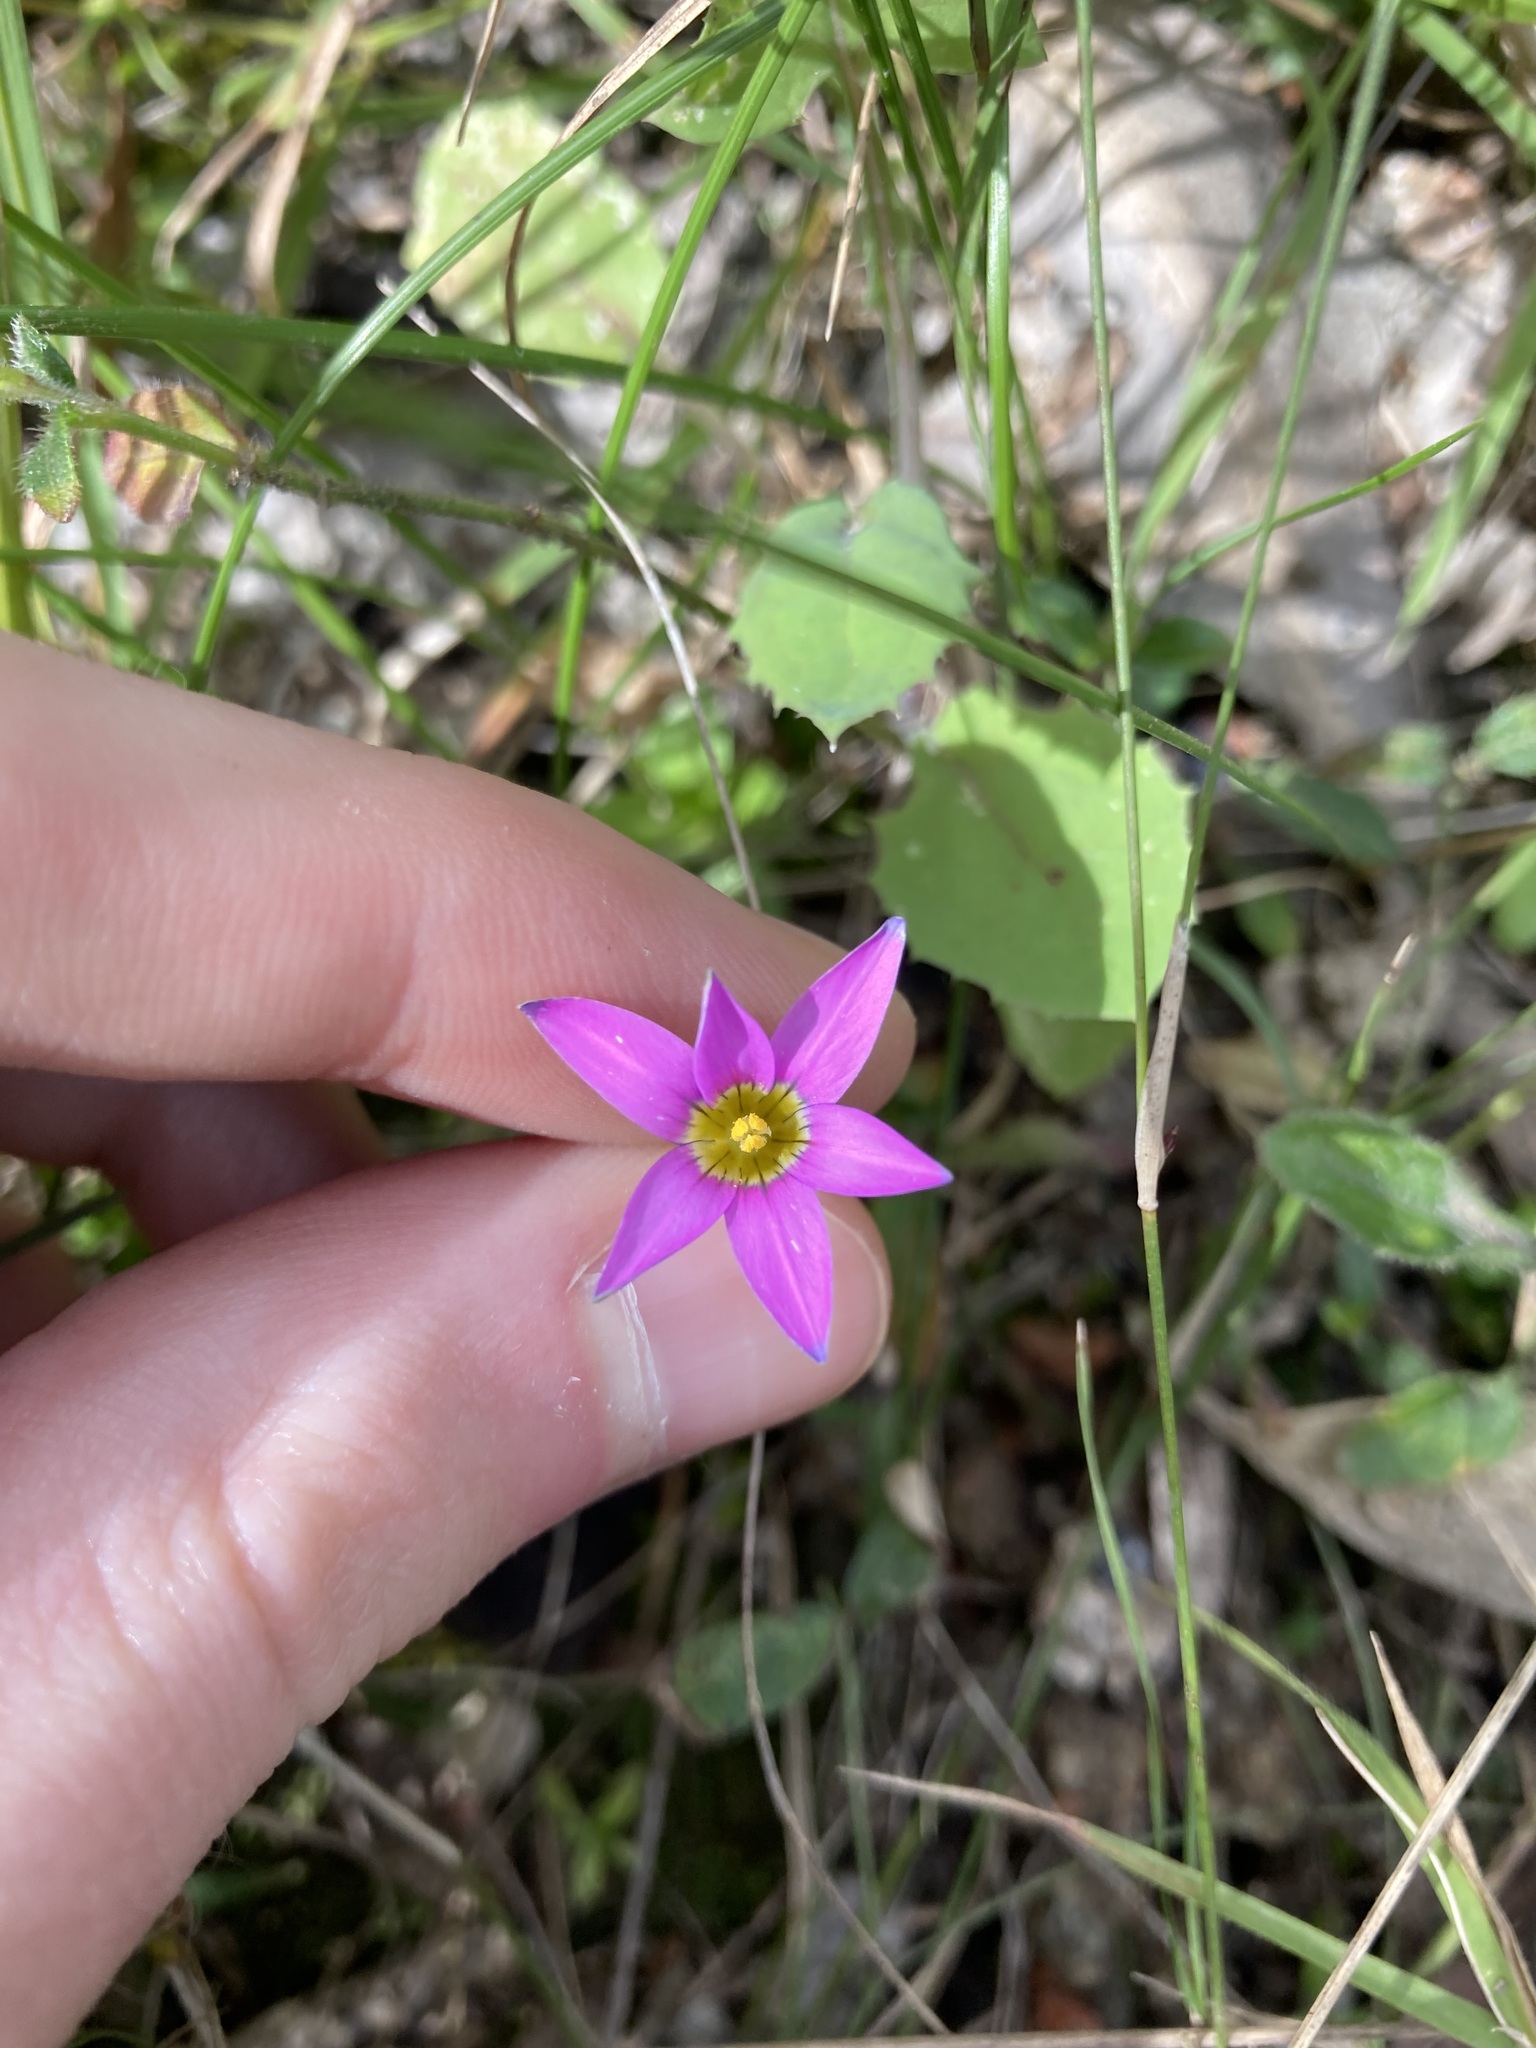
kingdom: Plantae
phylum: Tracheophyta
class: Liliopsida
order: Asparagales
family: Iridaceae
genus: Romulea
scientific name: Romulea rosea
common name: Oniongrass
